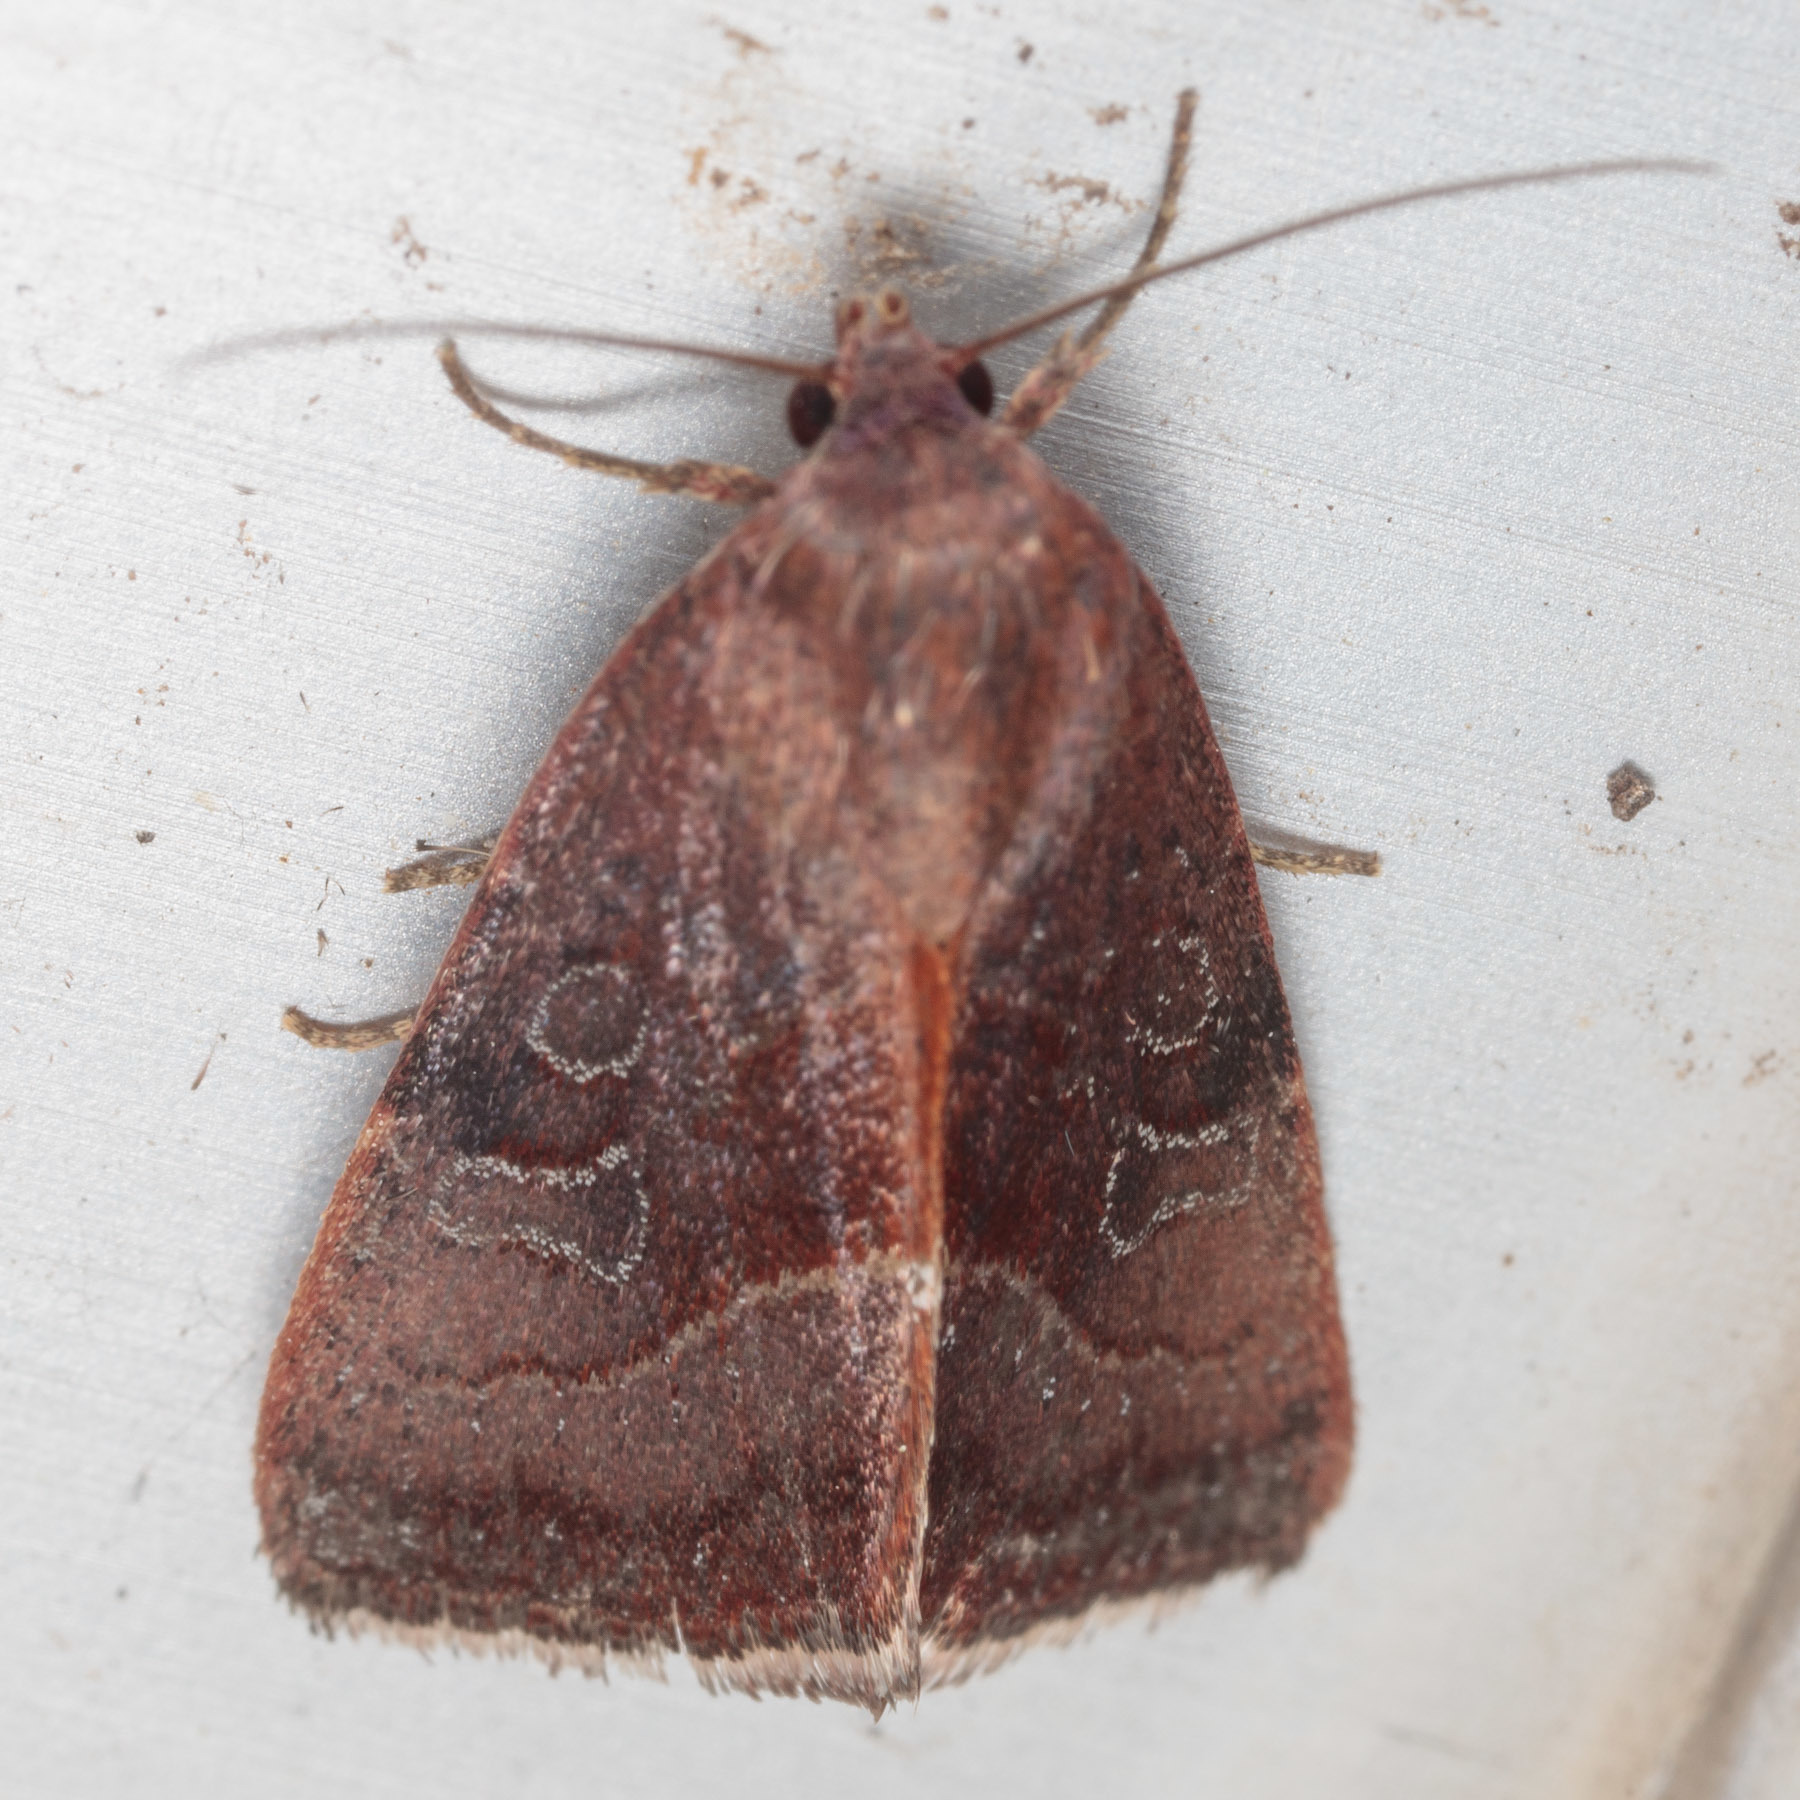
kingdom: Animalia
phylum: Arthropoda
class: Insecta
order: Lepidoptera
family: Noctuidae
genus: Galgula
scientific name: Galgula partita
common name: Wedgeling
